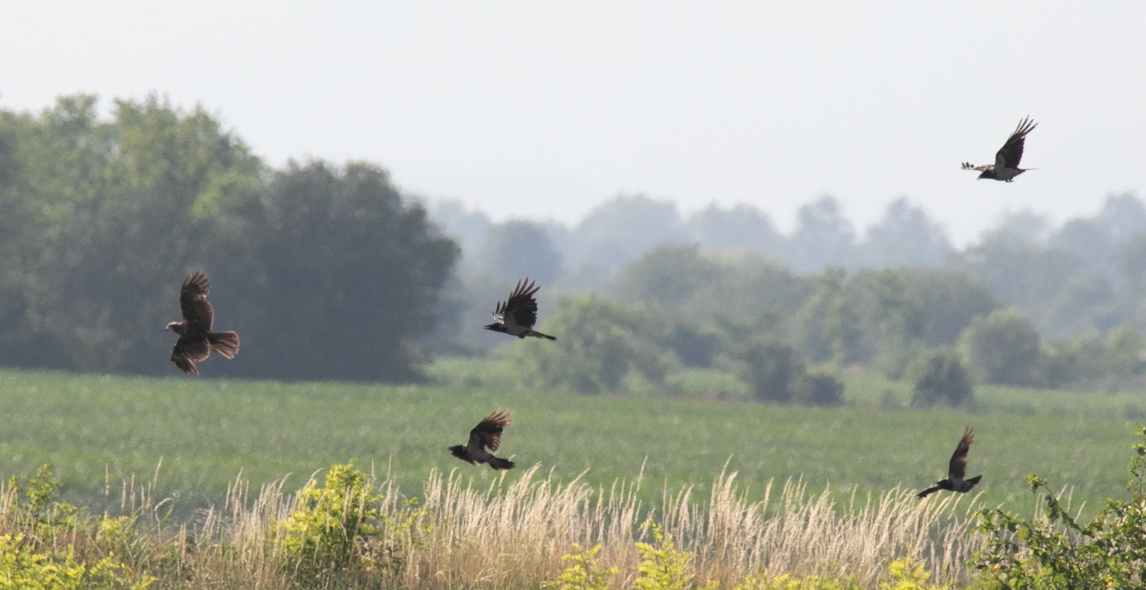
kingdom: Animalia
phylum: Chordata
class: Aves
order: Accipitriformes
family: Accipitridae
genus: Circus
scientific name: Circus aeruginosus
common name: Western marsh harrier
